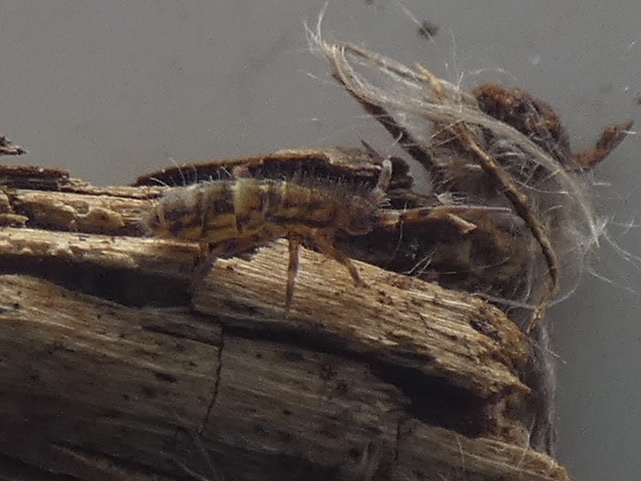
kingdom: Animalia
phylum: Arthropoda
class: Collembola
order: Entomobryomorpha
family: Orchesellidae
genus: Orchesella
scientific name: Orchesella cincta
